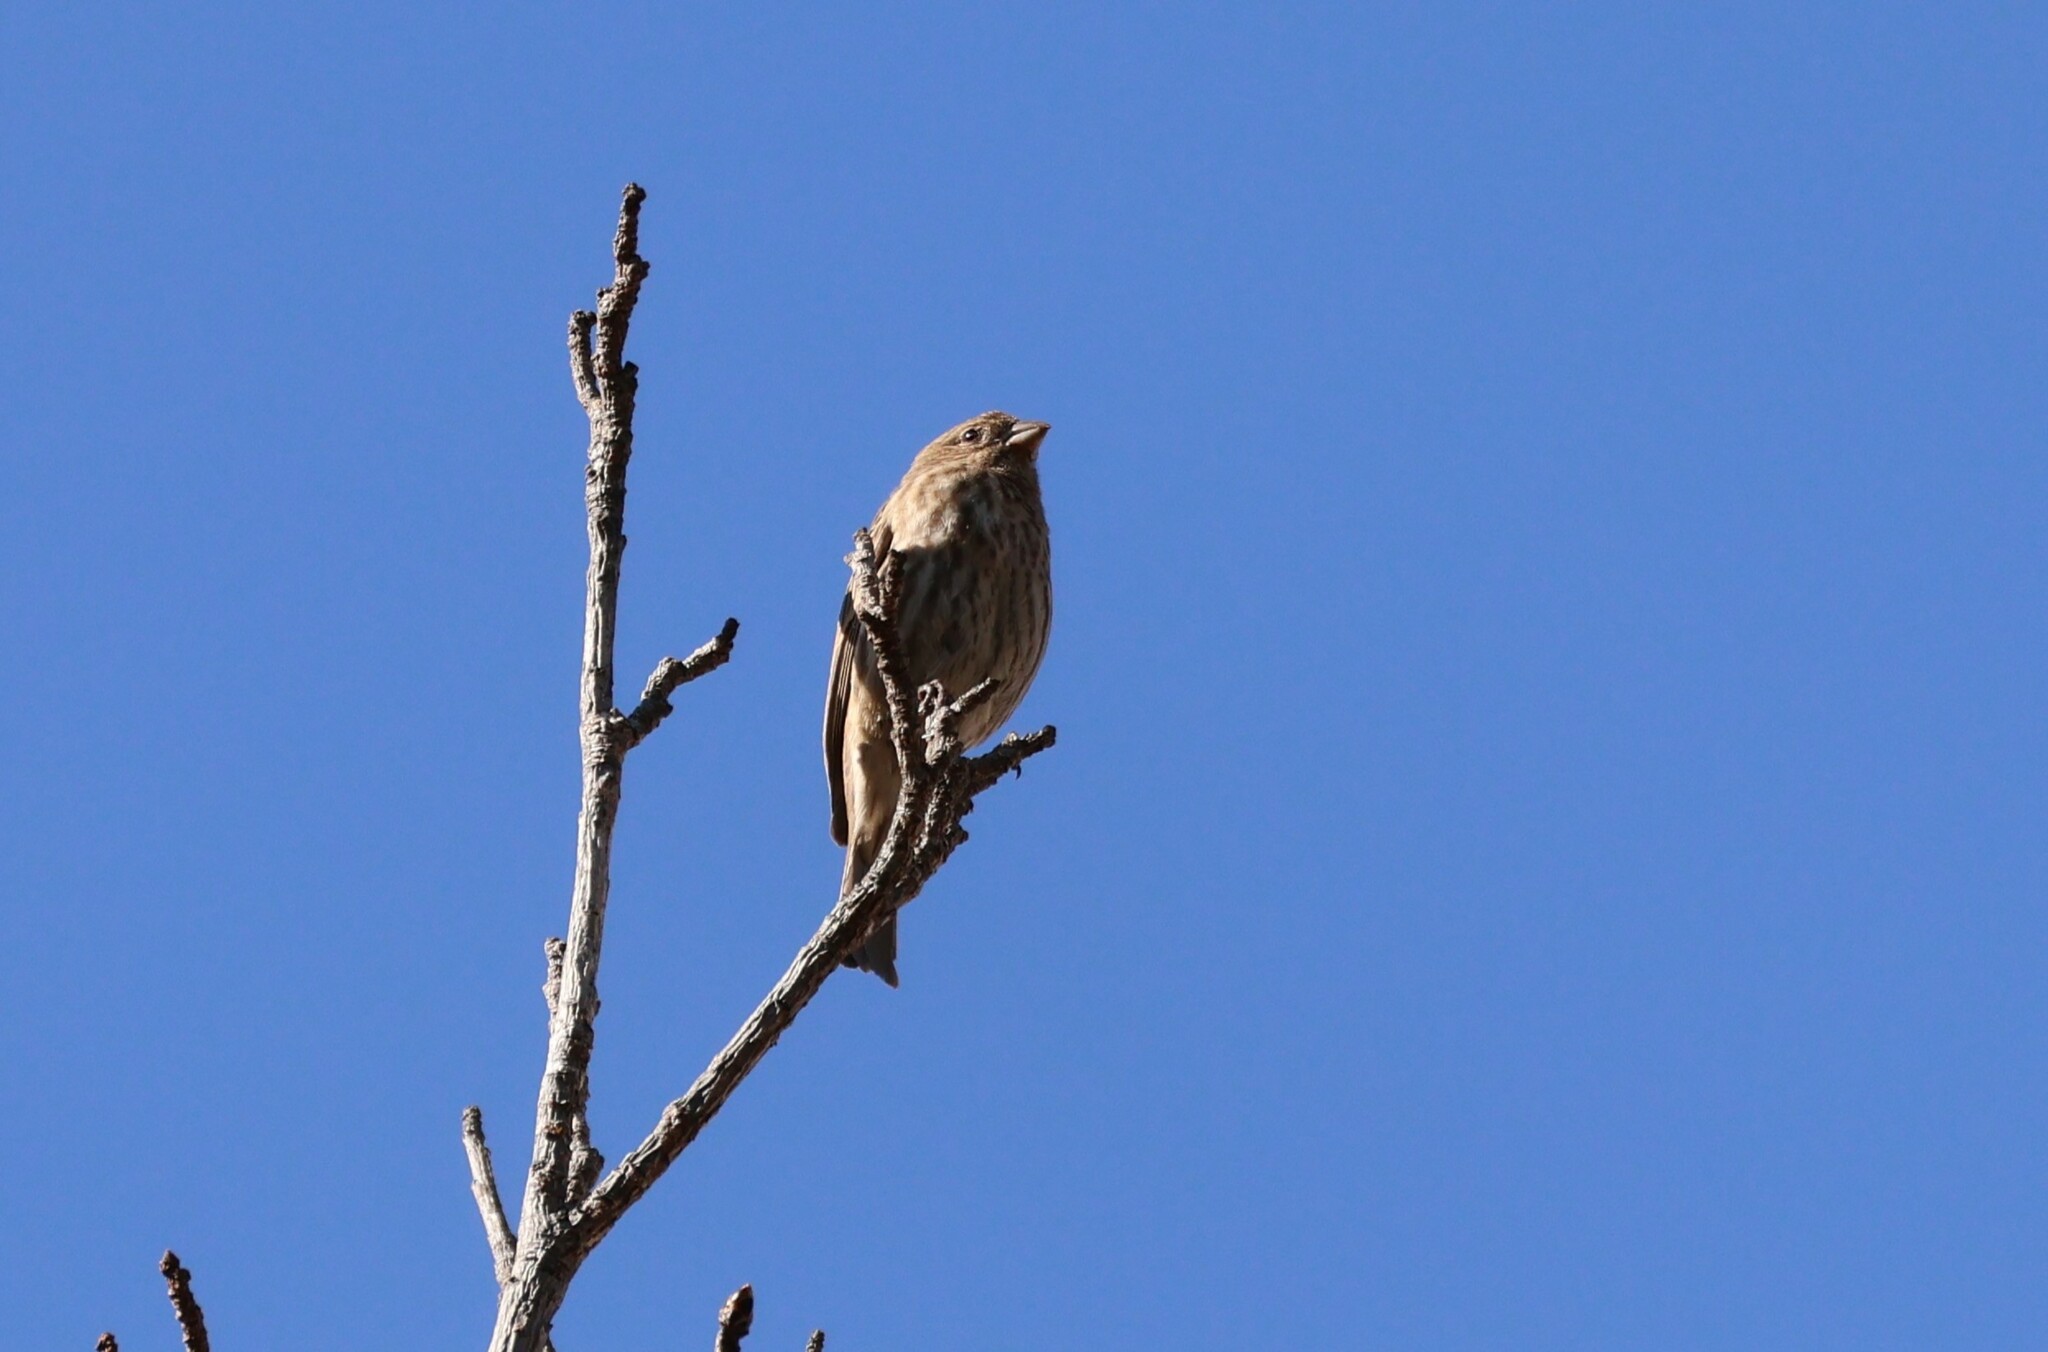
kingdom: Animalia
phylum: Chordata
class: Aves
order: Passeriformes
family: Fringillidae
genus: Haemorhous
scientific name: Haemorhous mexicanus
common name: House finch
